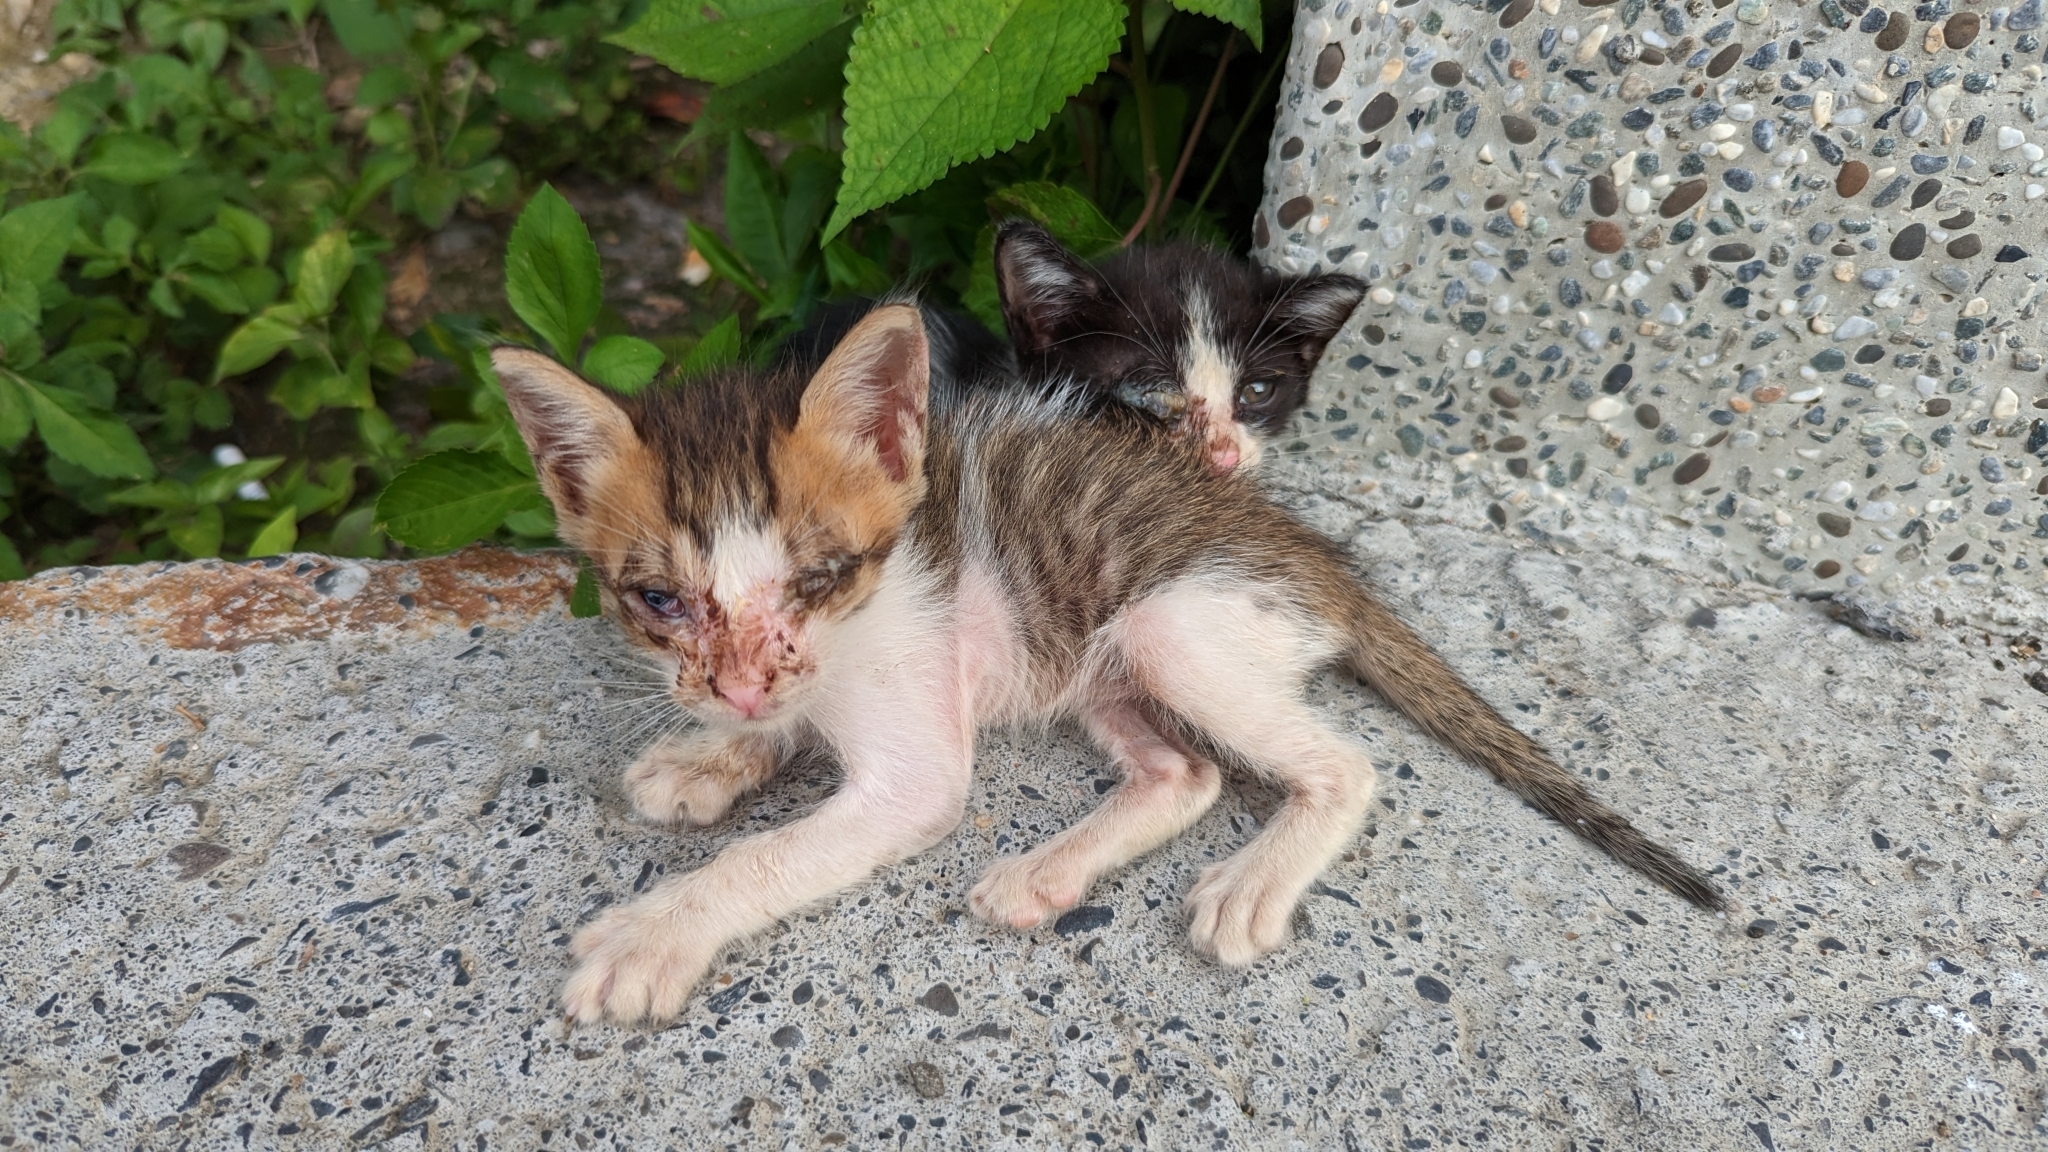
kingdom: Animalia
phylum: Chordata
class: Mammalia
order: Carnivora
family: Felidae
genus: Felis
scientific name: Felis catus
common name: Domestic cat
